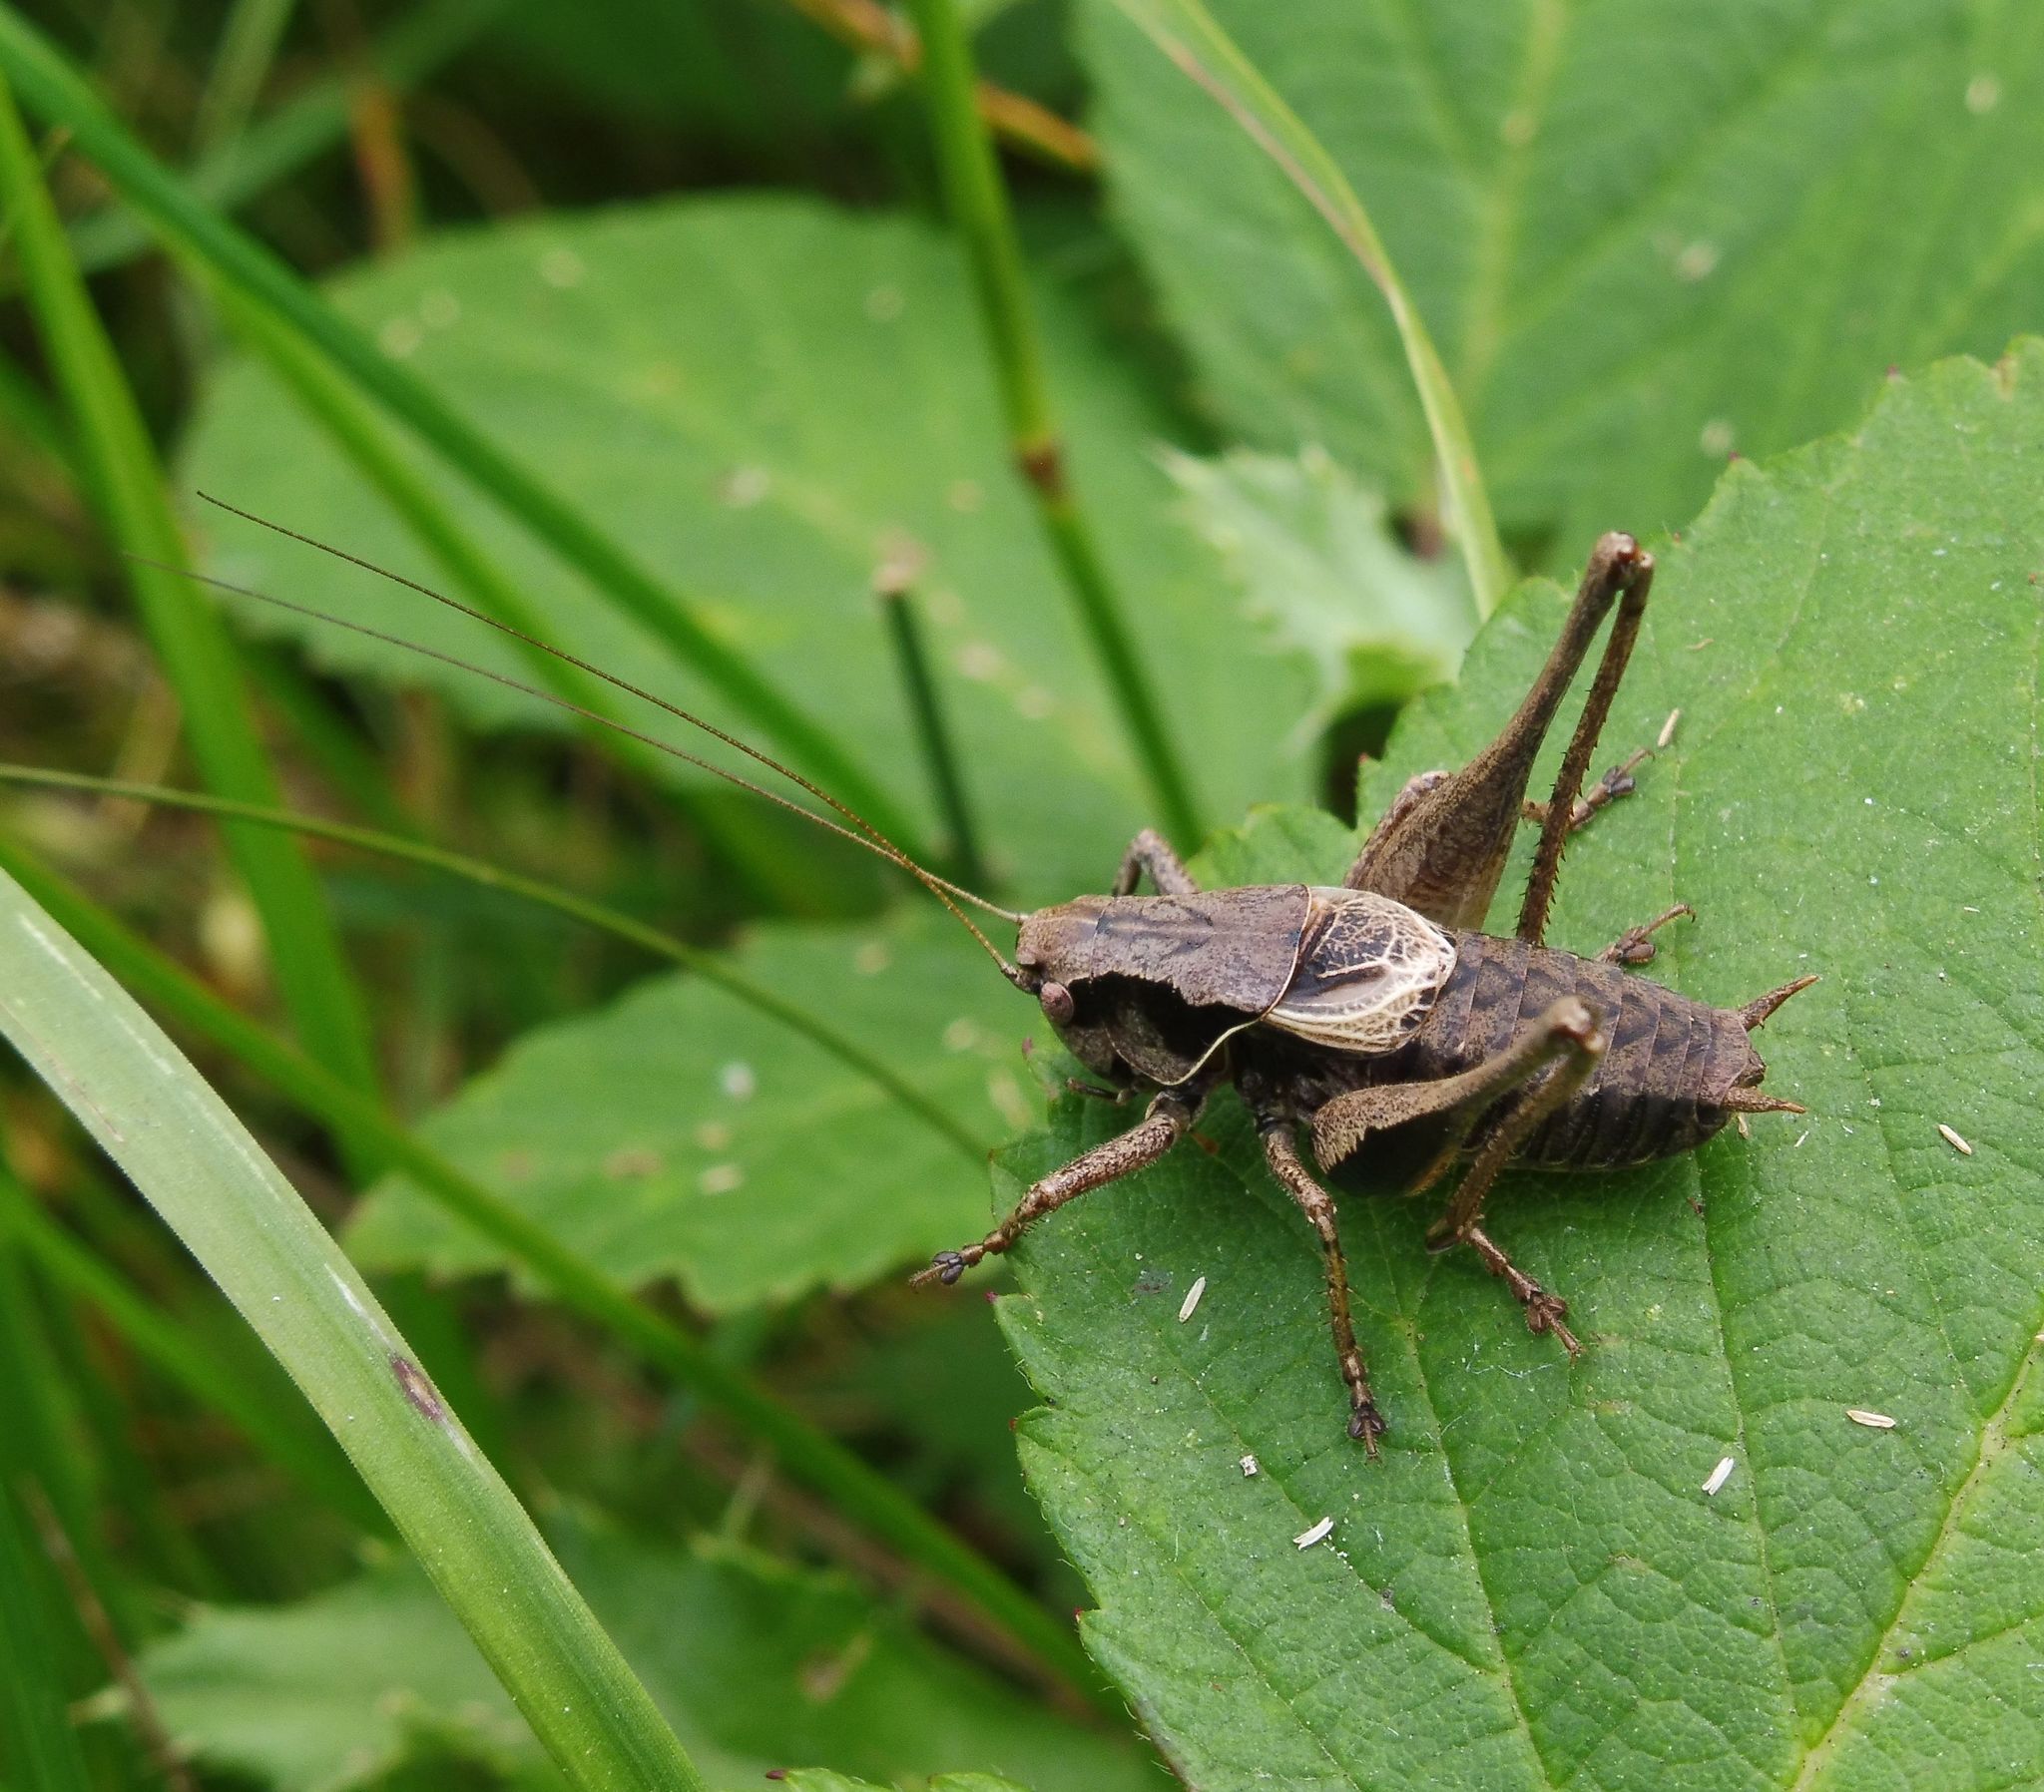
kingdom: Animalia
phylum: Arthropoda
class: Insecta
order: Orthoptera
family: Tettigoniidae
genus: Pholidoptera
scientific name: Pholidoptera griseoaptera
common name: Dark bush-cricket
